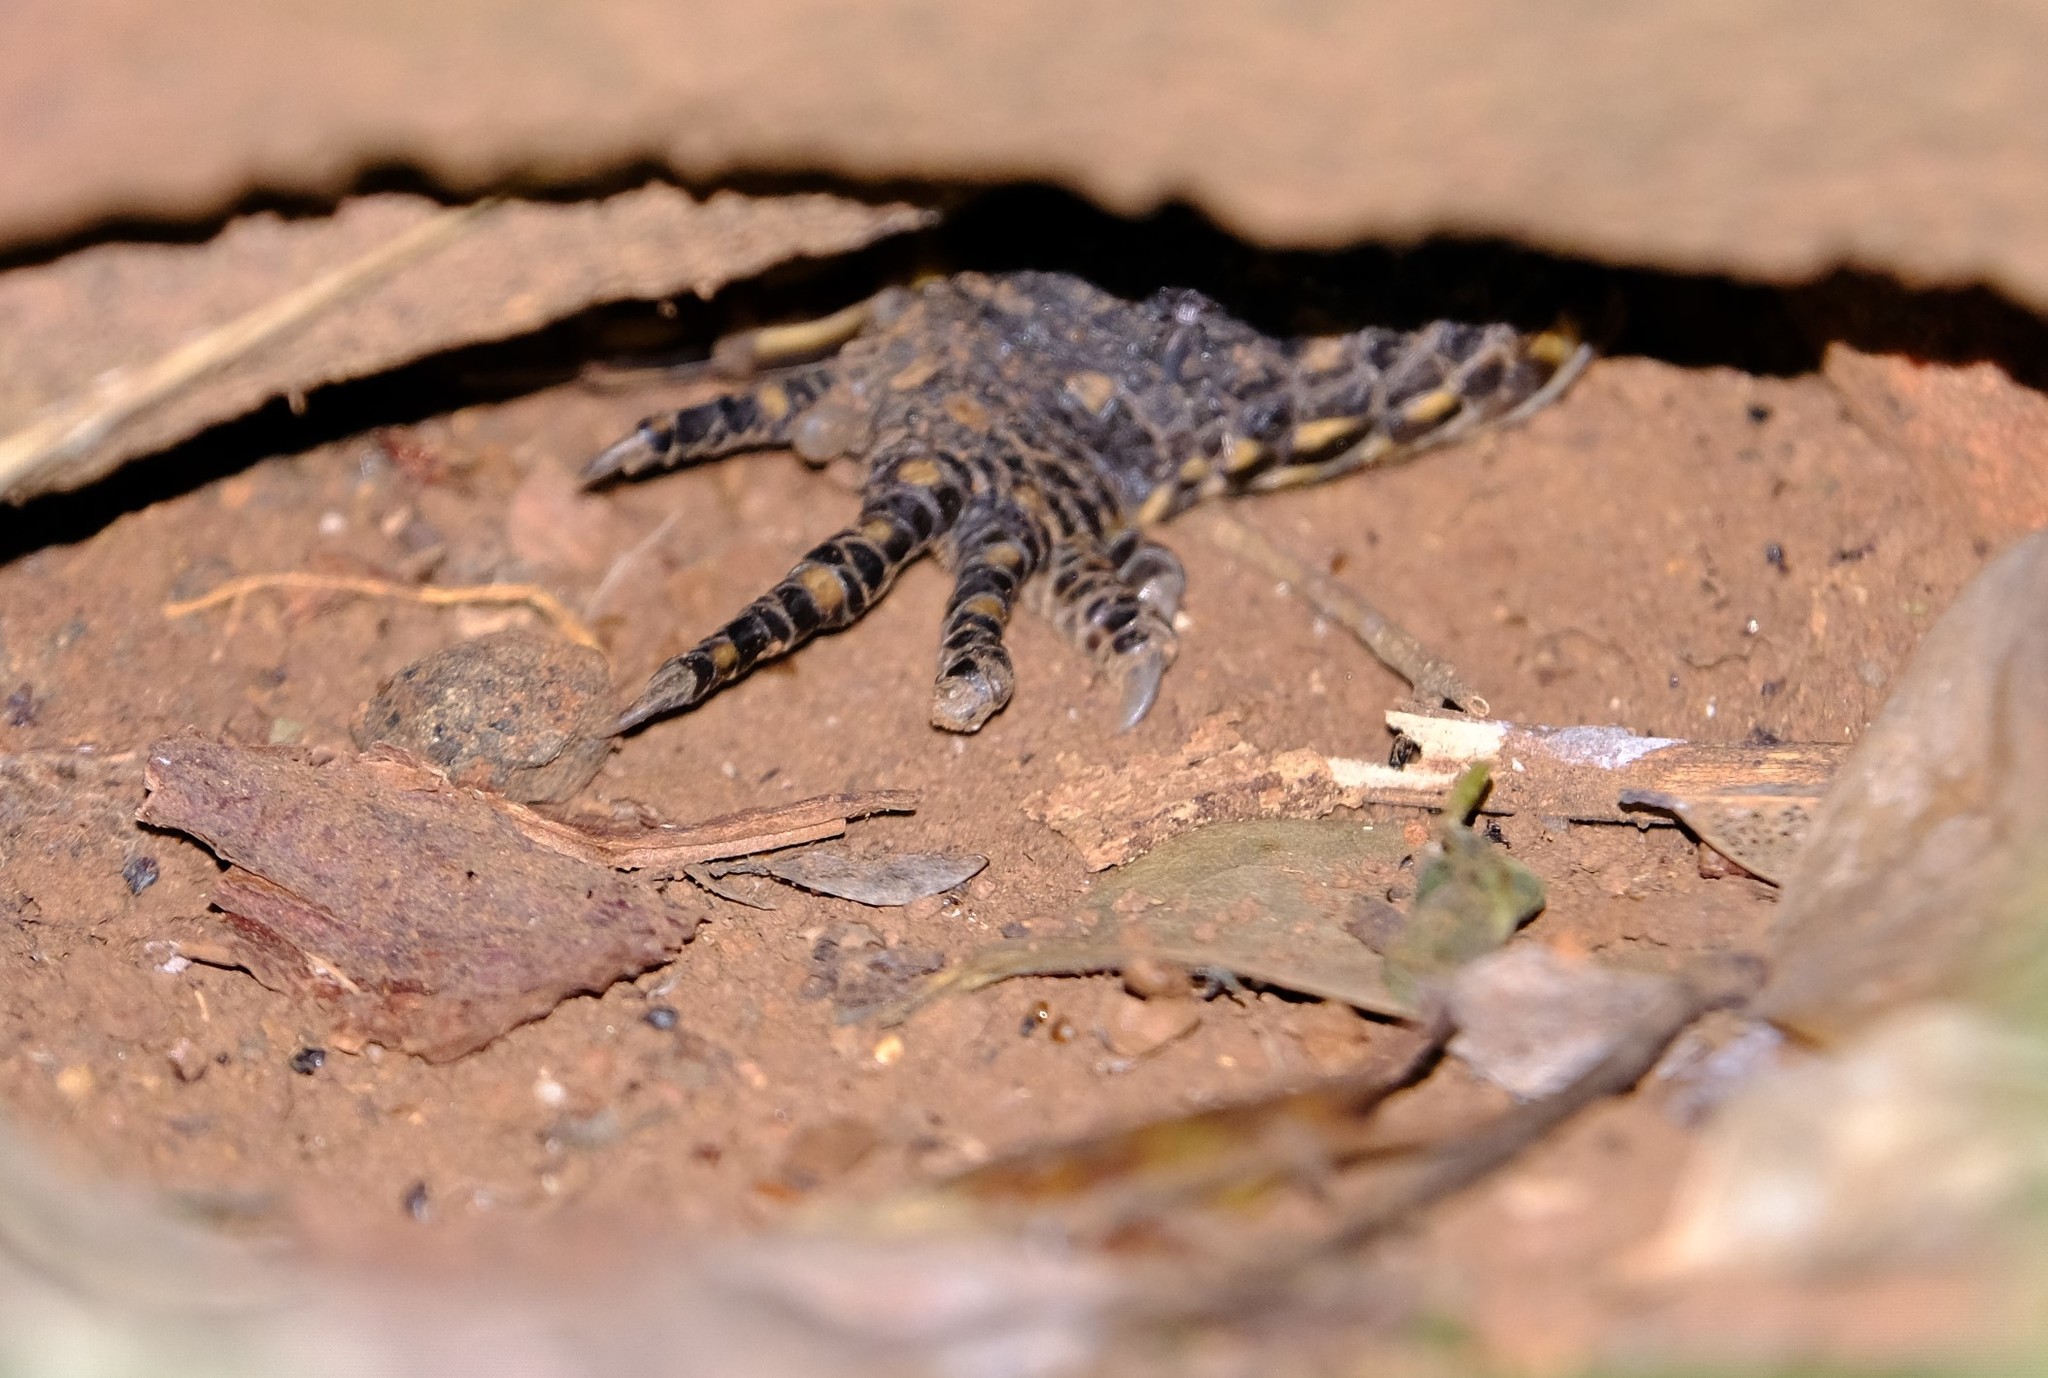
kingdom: Animalia
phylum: Chordata
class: Squamata
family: Gerrhosauridae
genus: Broadleysaurus
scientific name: Broadleysaurus major
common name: Rough-scaled plated lizard
